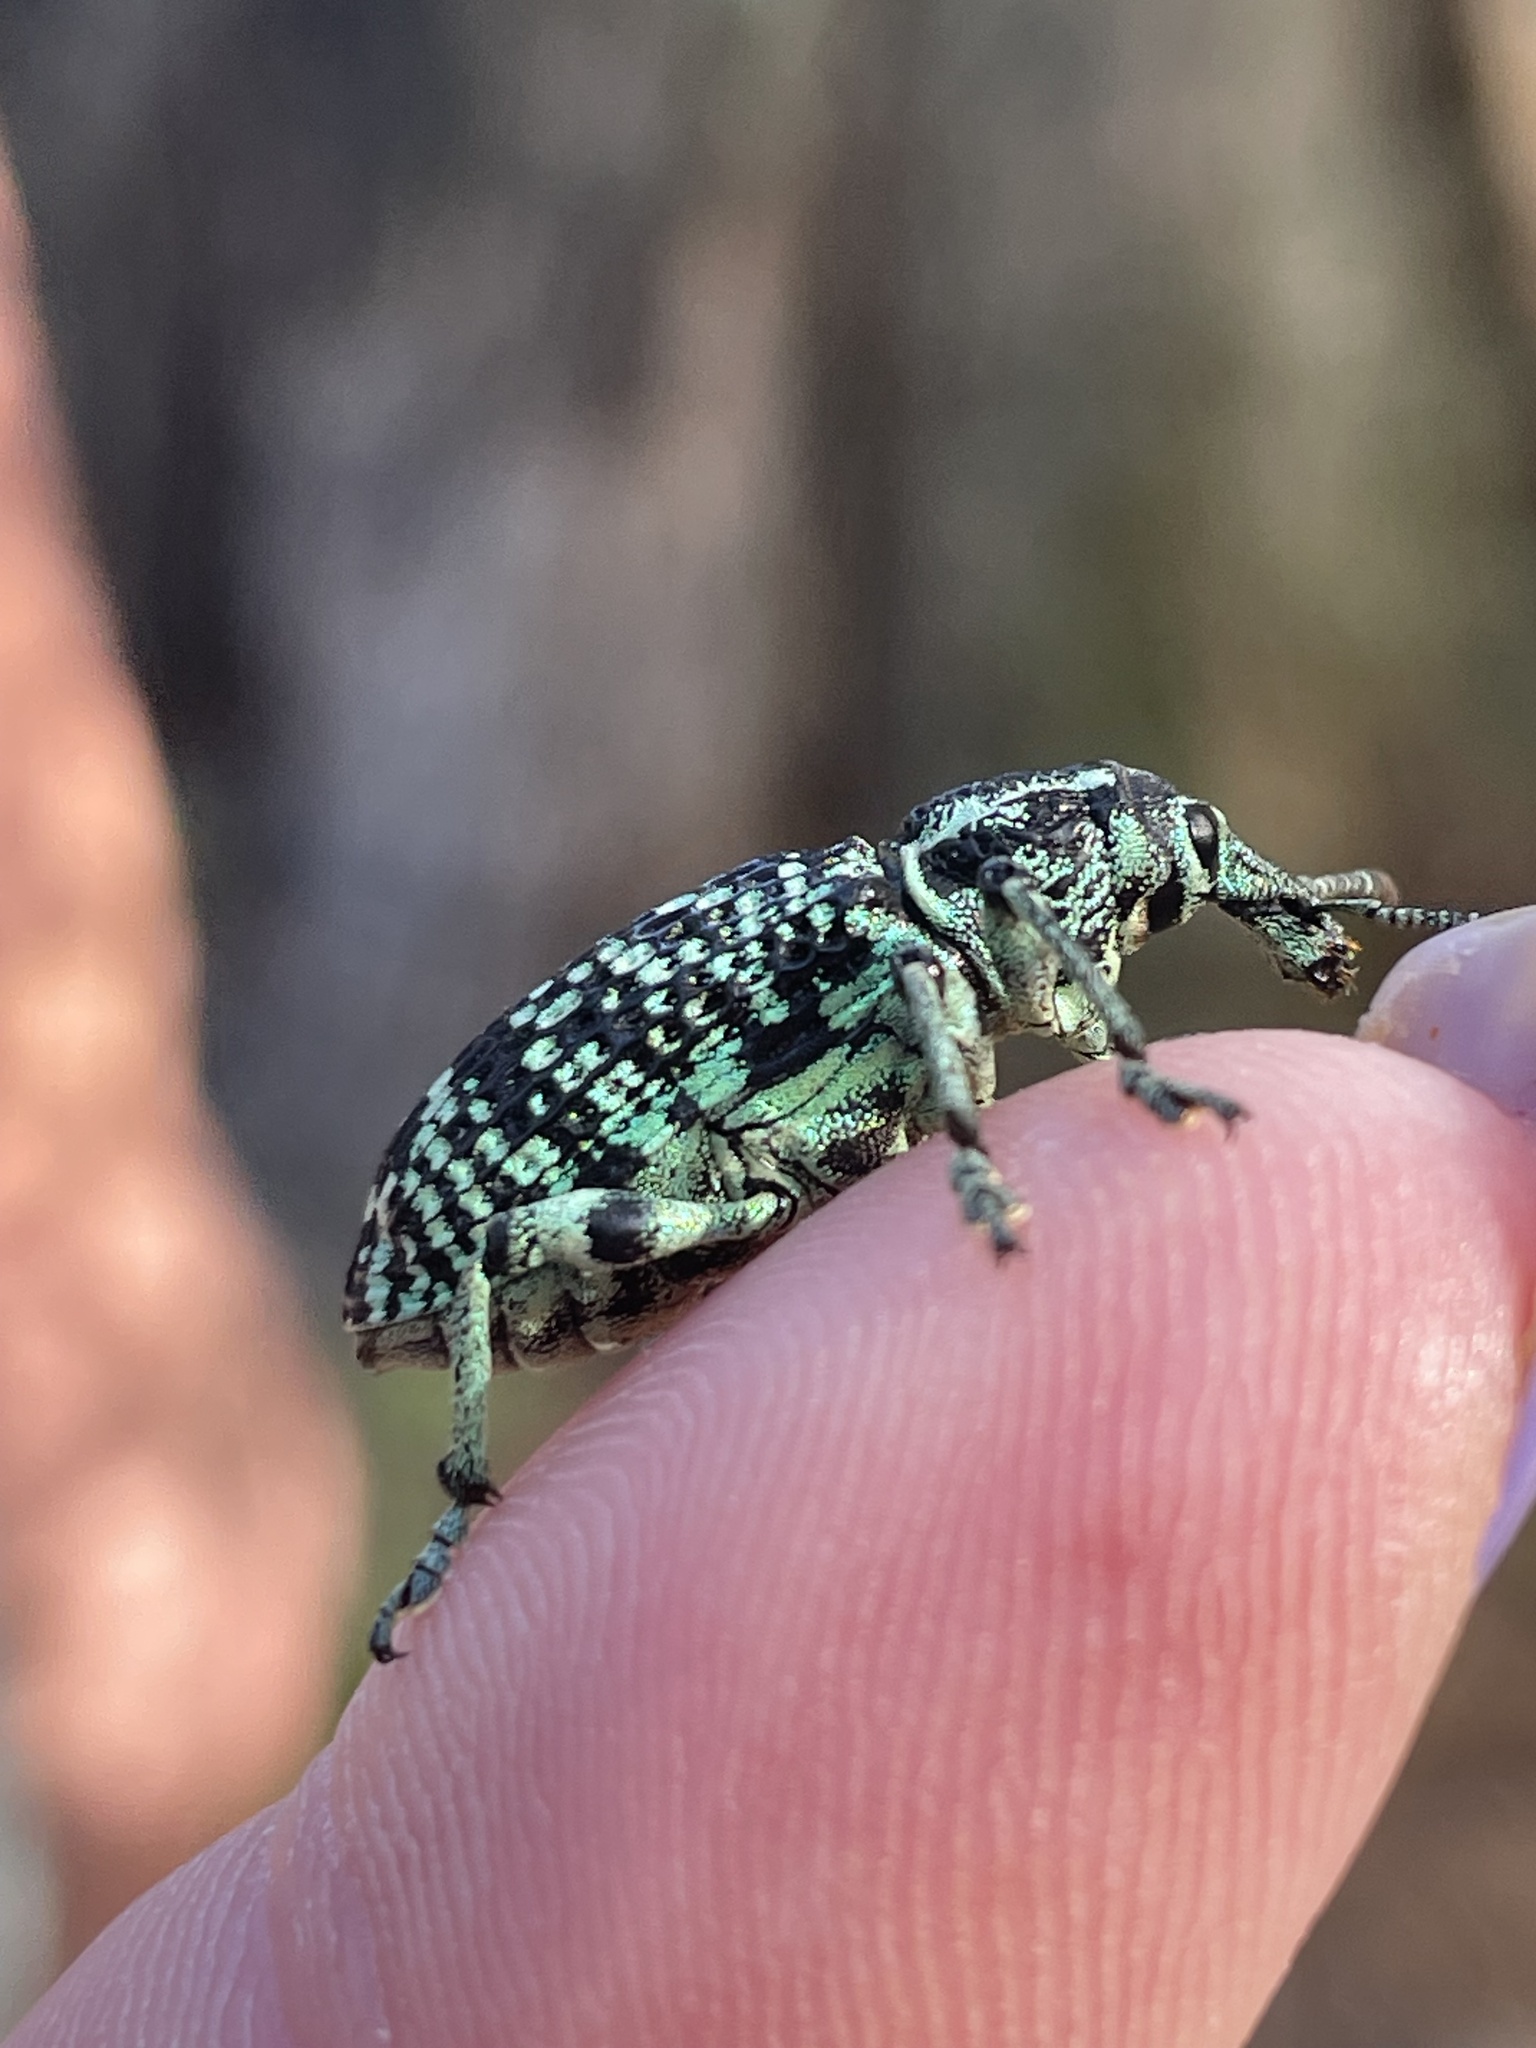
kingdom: Animalia
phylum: Arthropoda
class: Insecta
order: Coleoptera
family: Curculionidae
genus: Chrysolopus
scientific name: Chrysolopus spectabilis
